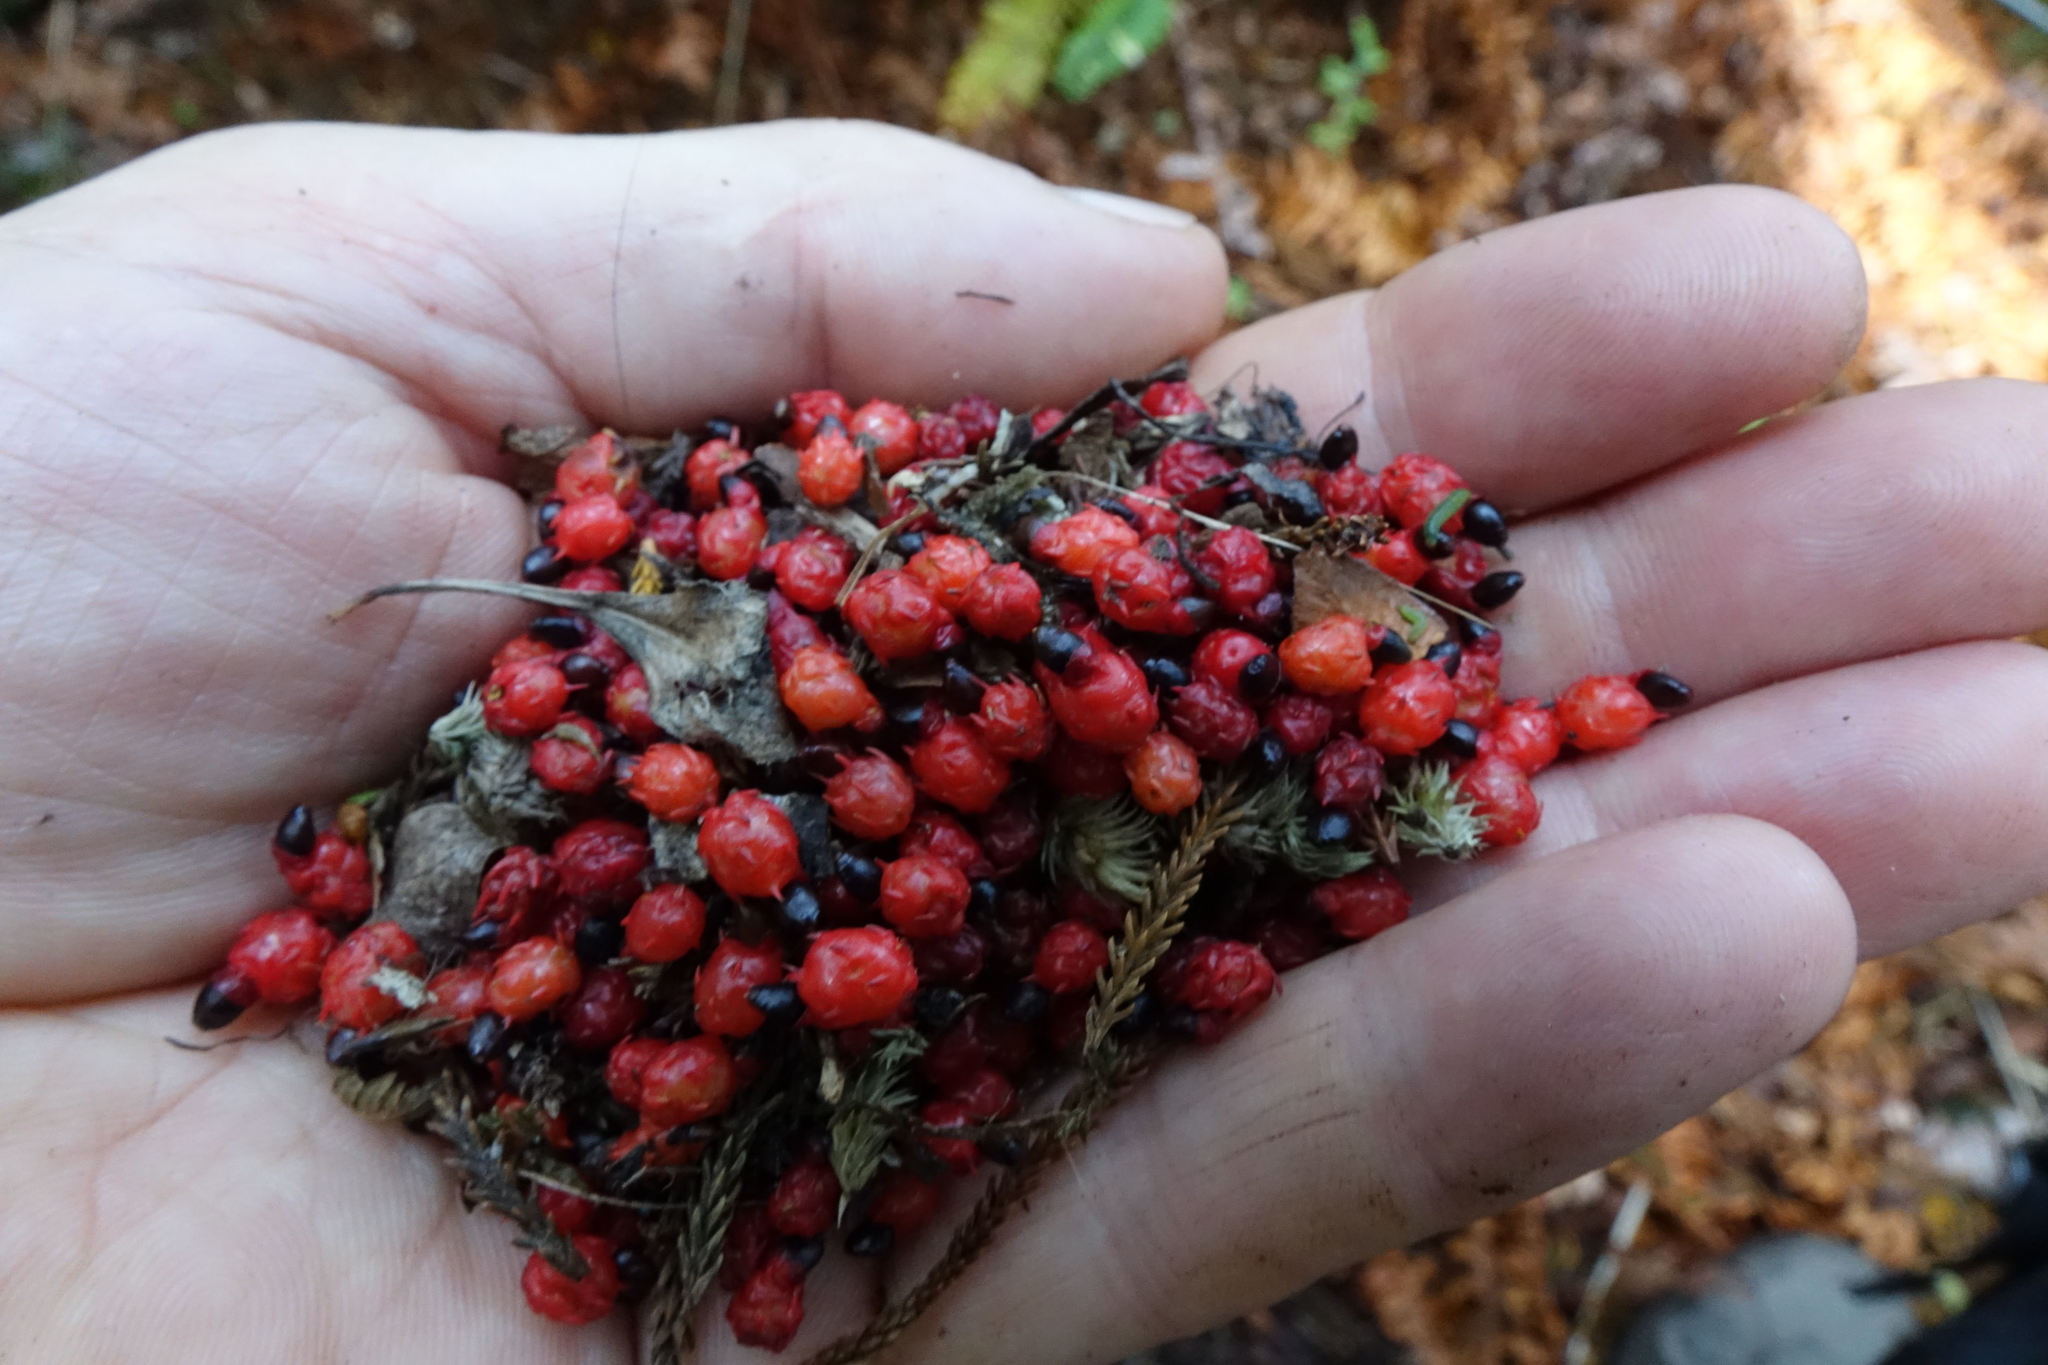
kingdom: Plantae
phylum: Tracheophyta
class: Pinopsida
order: Pinales
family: Podocarpaceae
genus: Dacrydium
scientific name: Dacrydium cupressinum
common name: Red pine
